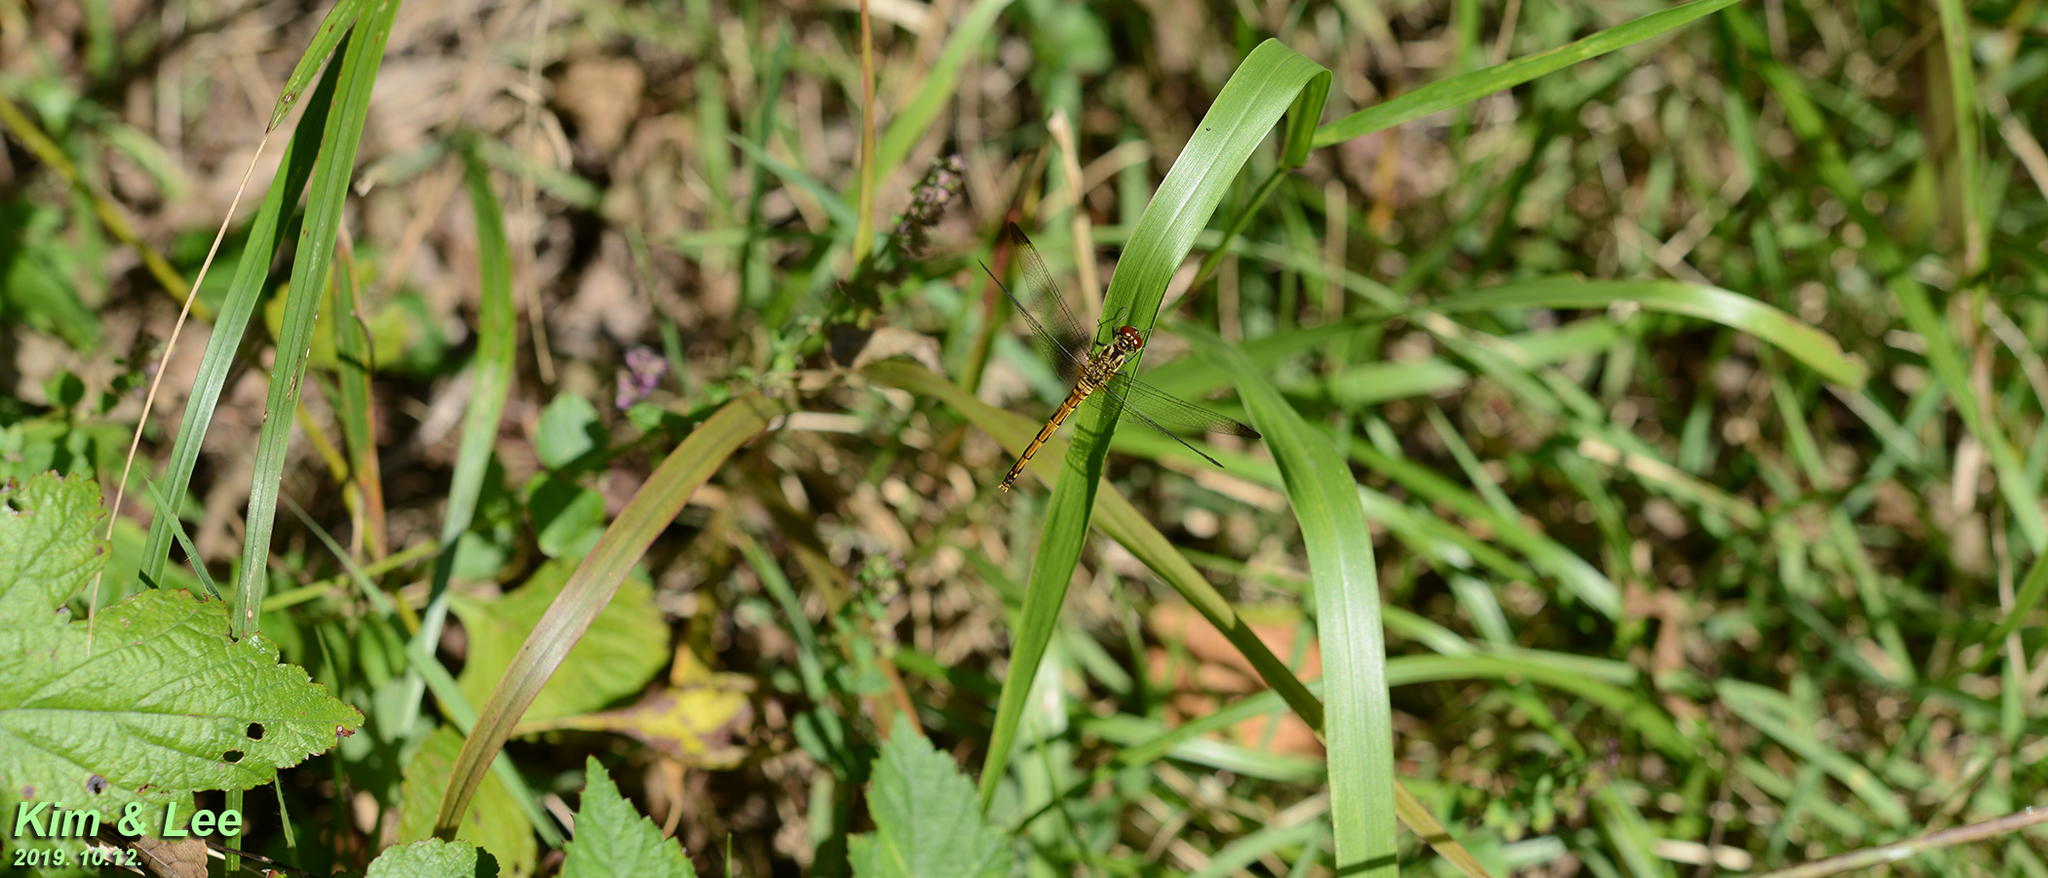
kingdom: Animalia
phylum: Arthropoda
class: Insecta
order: Odonata
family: Libellulidae
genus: Sympetrum
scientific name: Sympetrum eroticum
